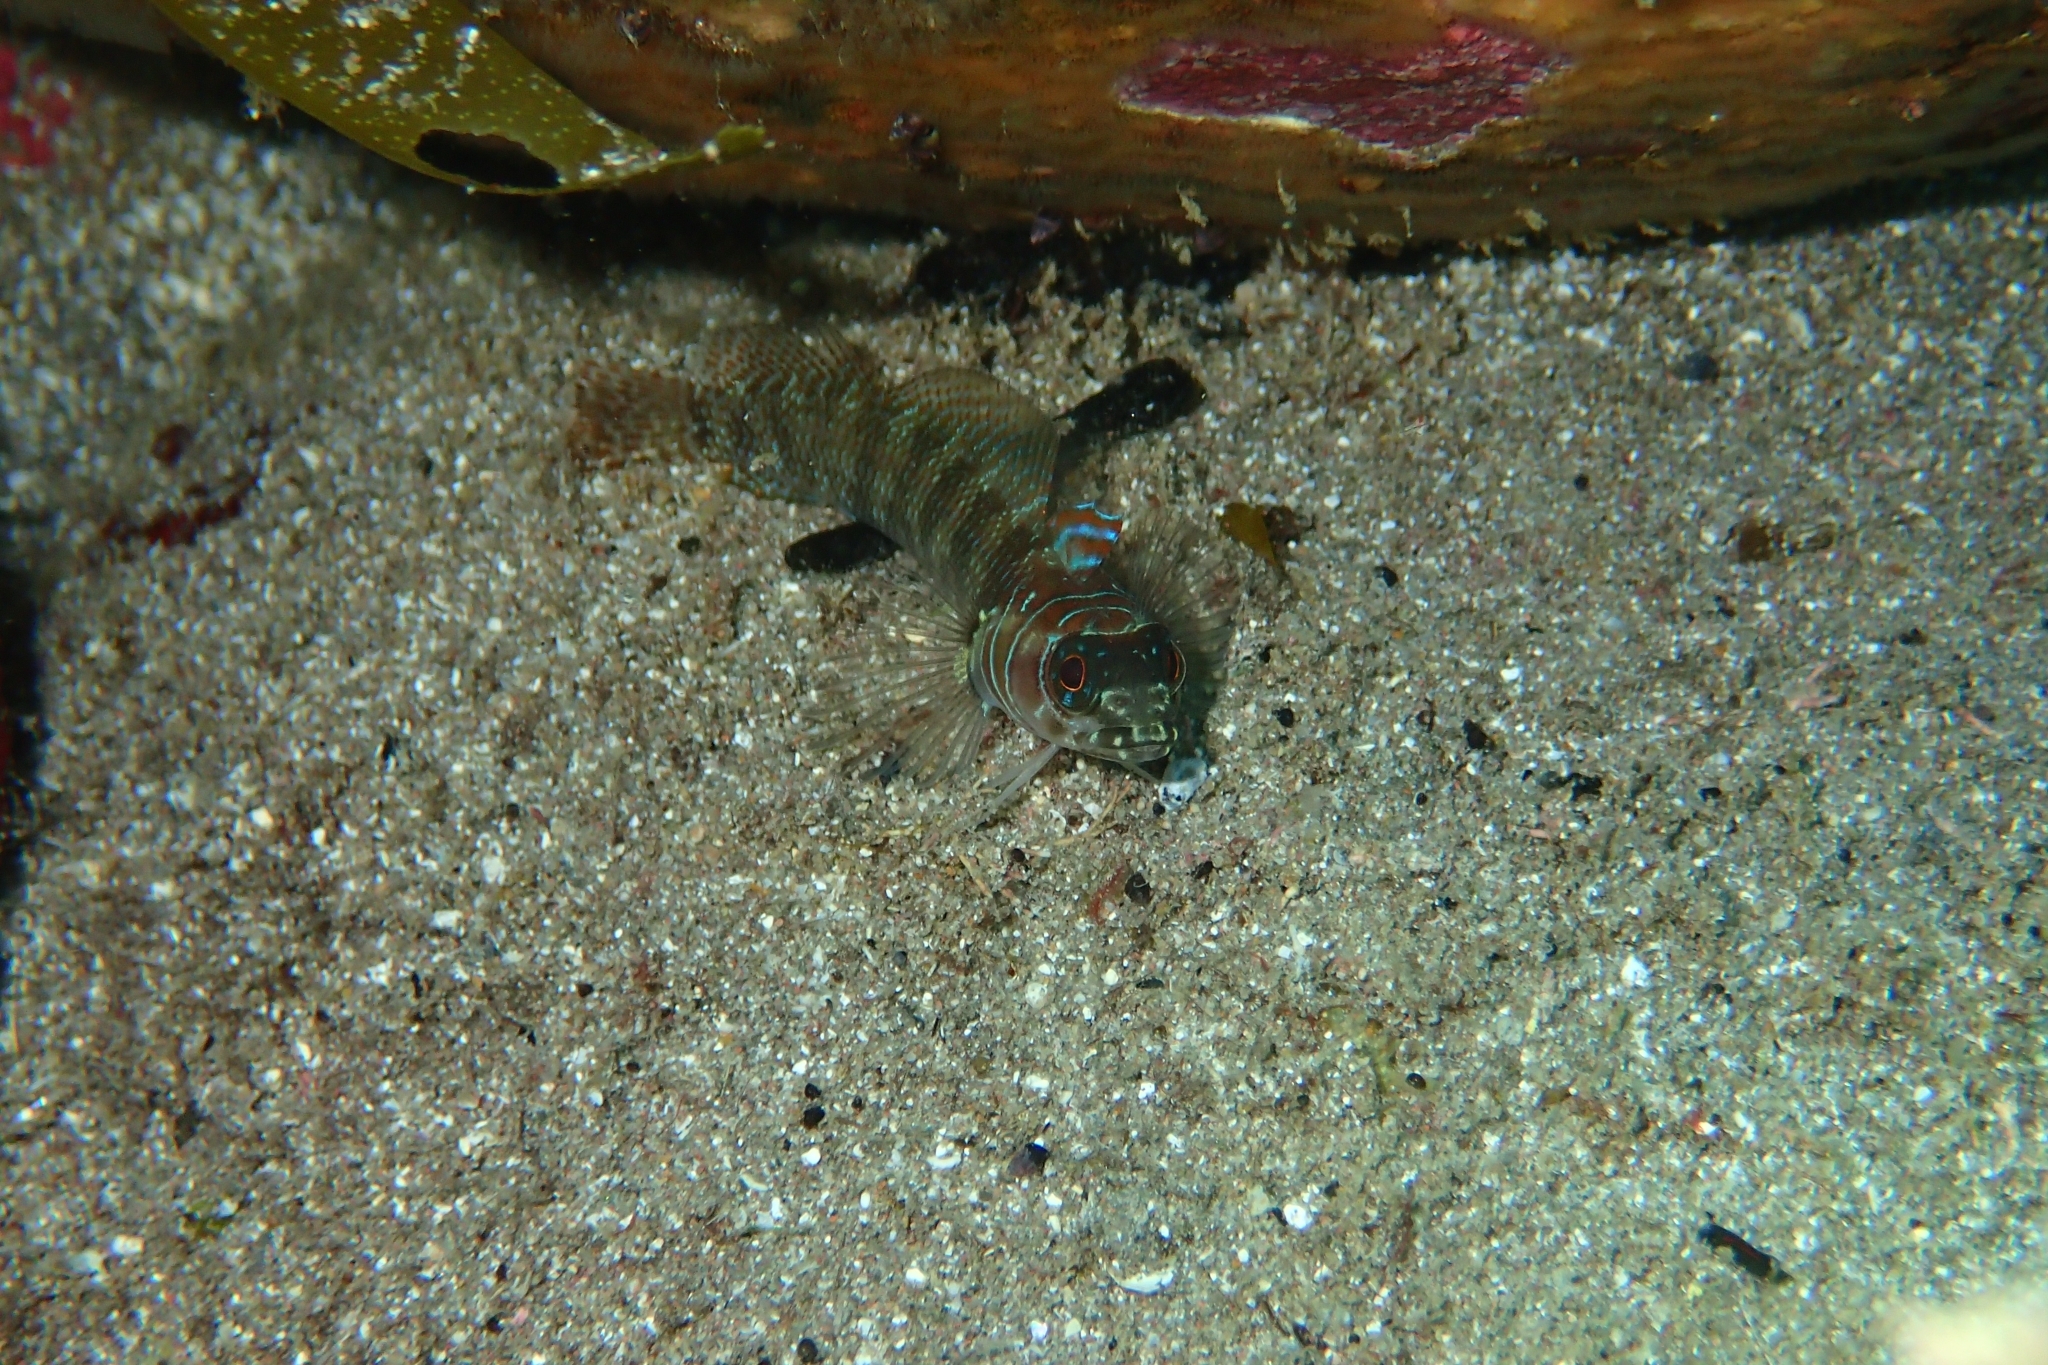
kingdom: Animalia
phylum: Chordata
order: Perciformes
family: Tripterygiidae
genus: Ruanoho
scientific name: Ruanoho whero
